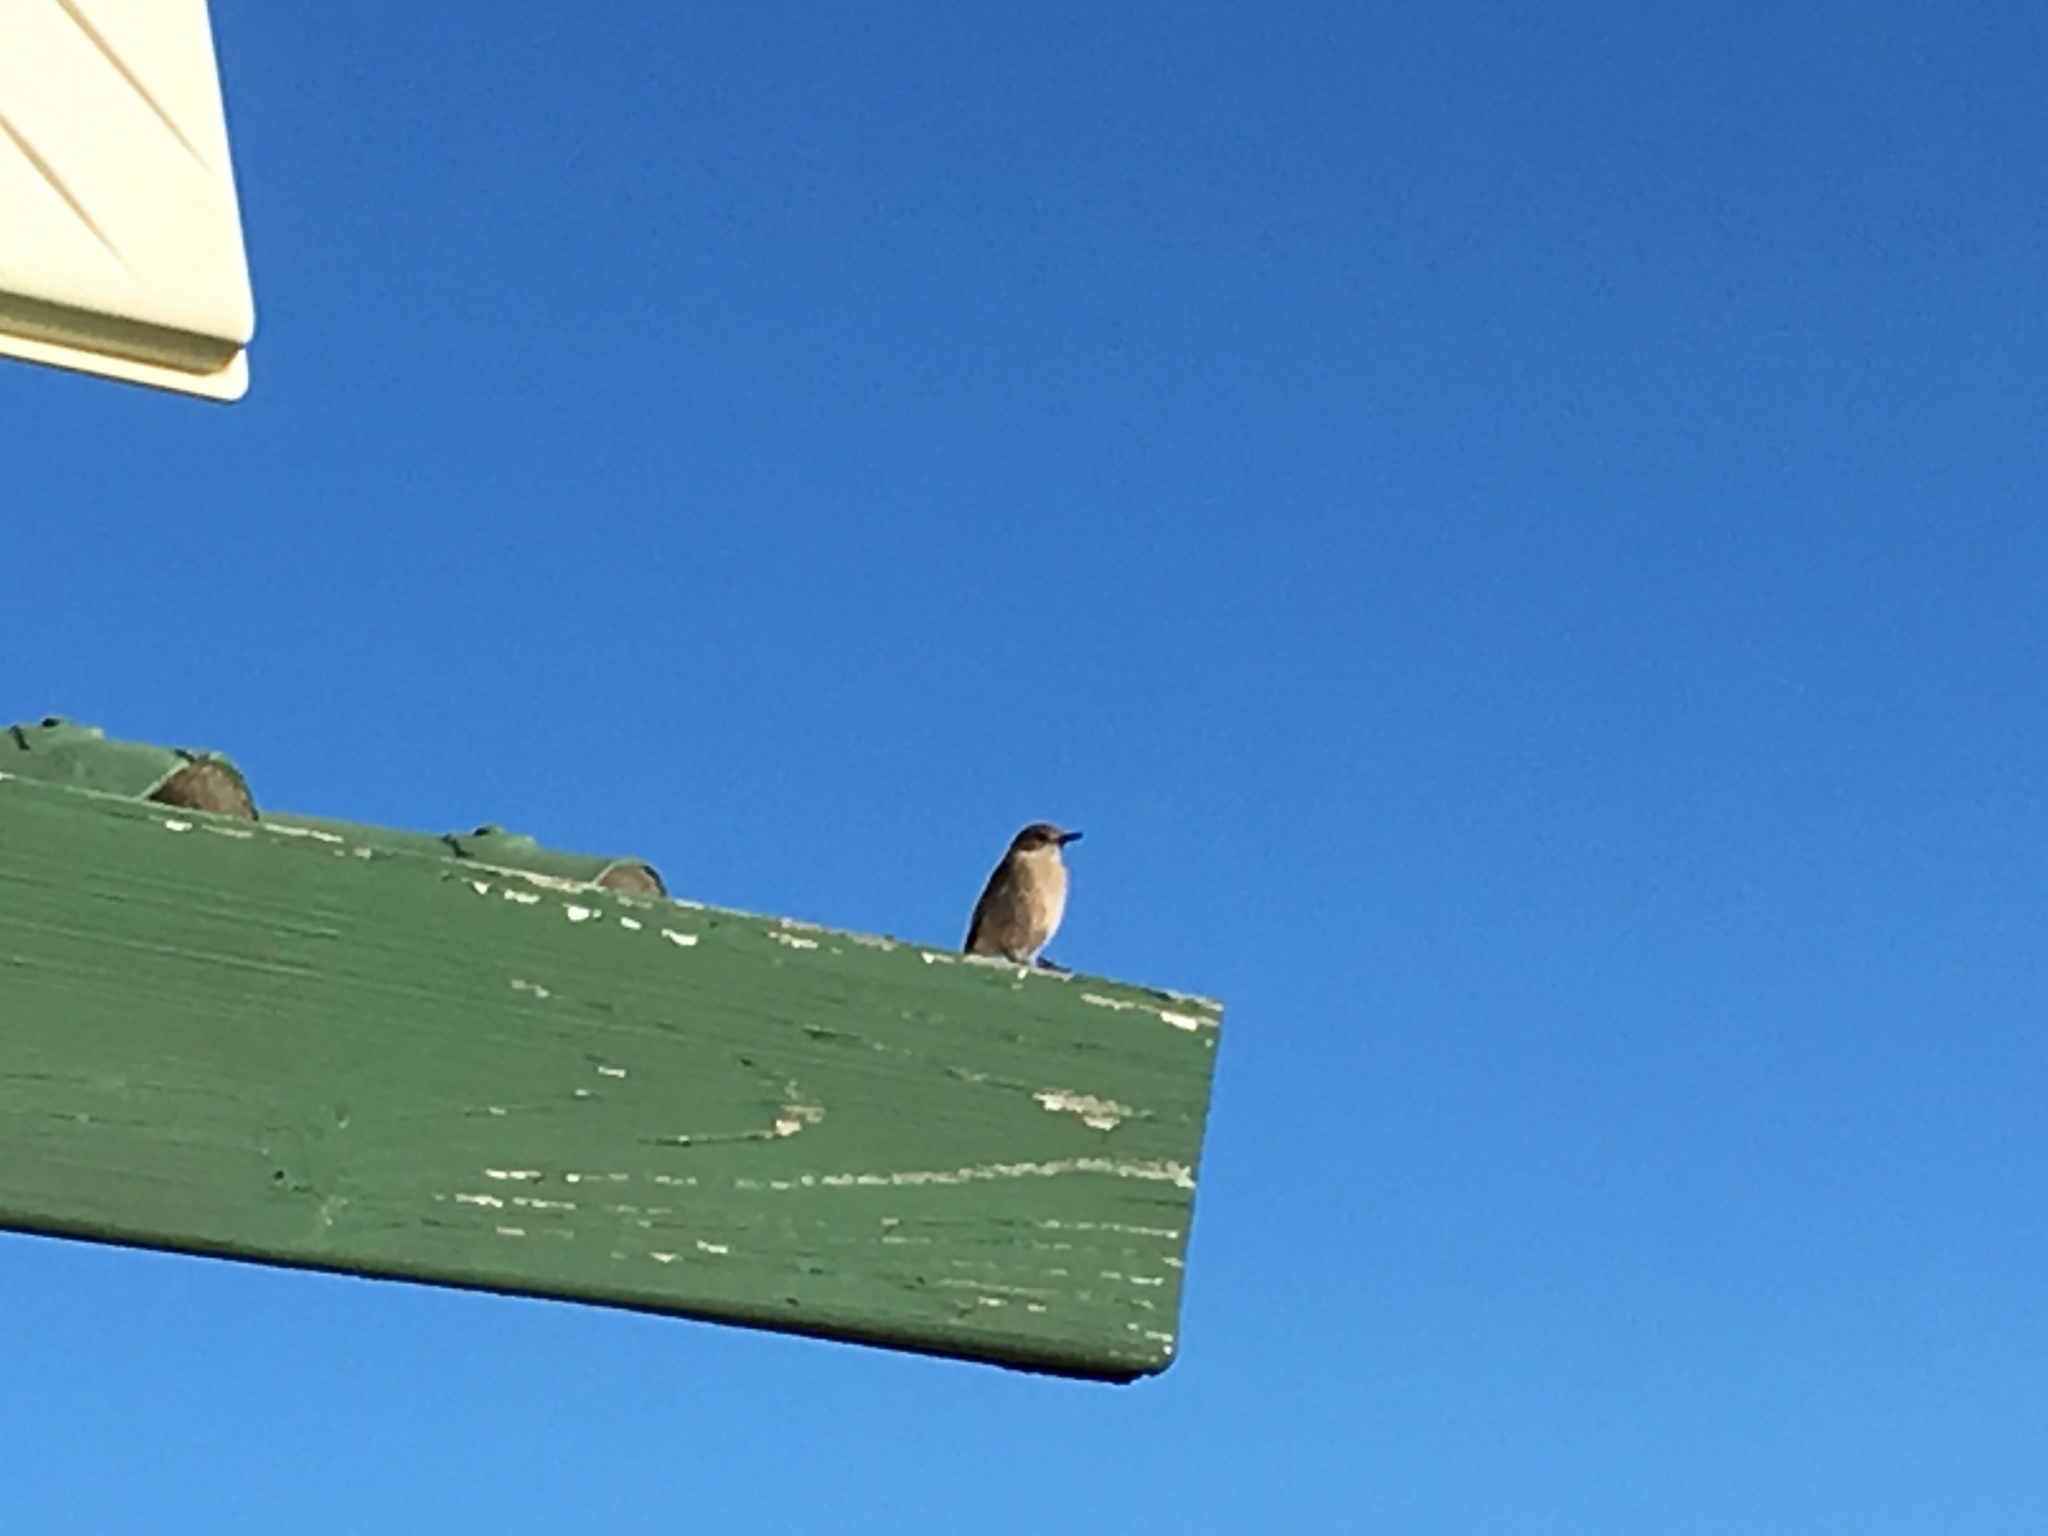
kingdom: Animalia
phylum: Chordata
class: Aves
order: Passeriformes
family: Muscicapidae
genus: Oenanthe
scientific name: Oenanthe familiaris
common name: Familiar chat
